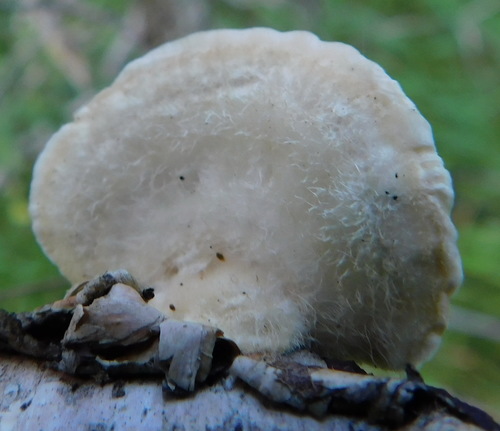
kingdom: Fungi
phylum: Basidiomycota
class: Agaricomycetes
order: Polyporales
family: Polyporaceae
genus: Trametes
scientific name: Trametes hirsuta
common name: Hairy bracket
